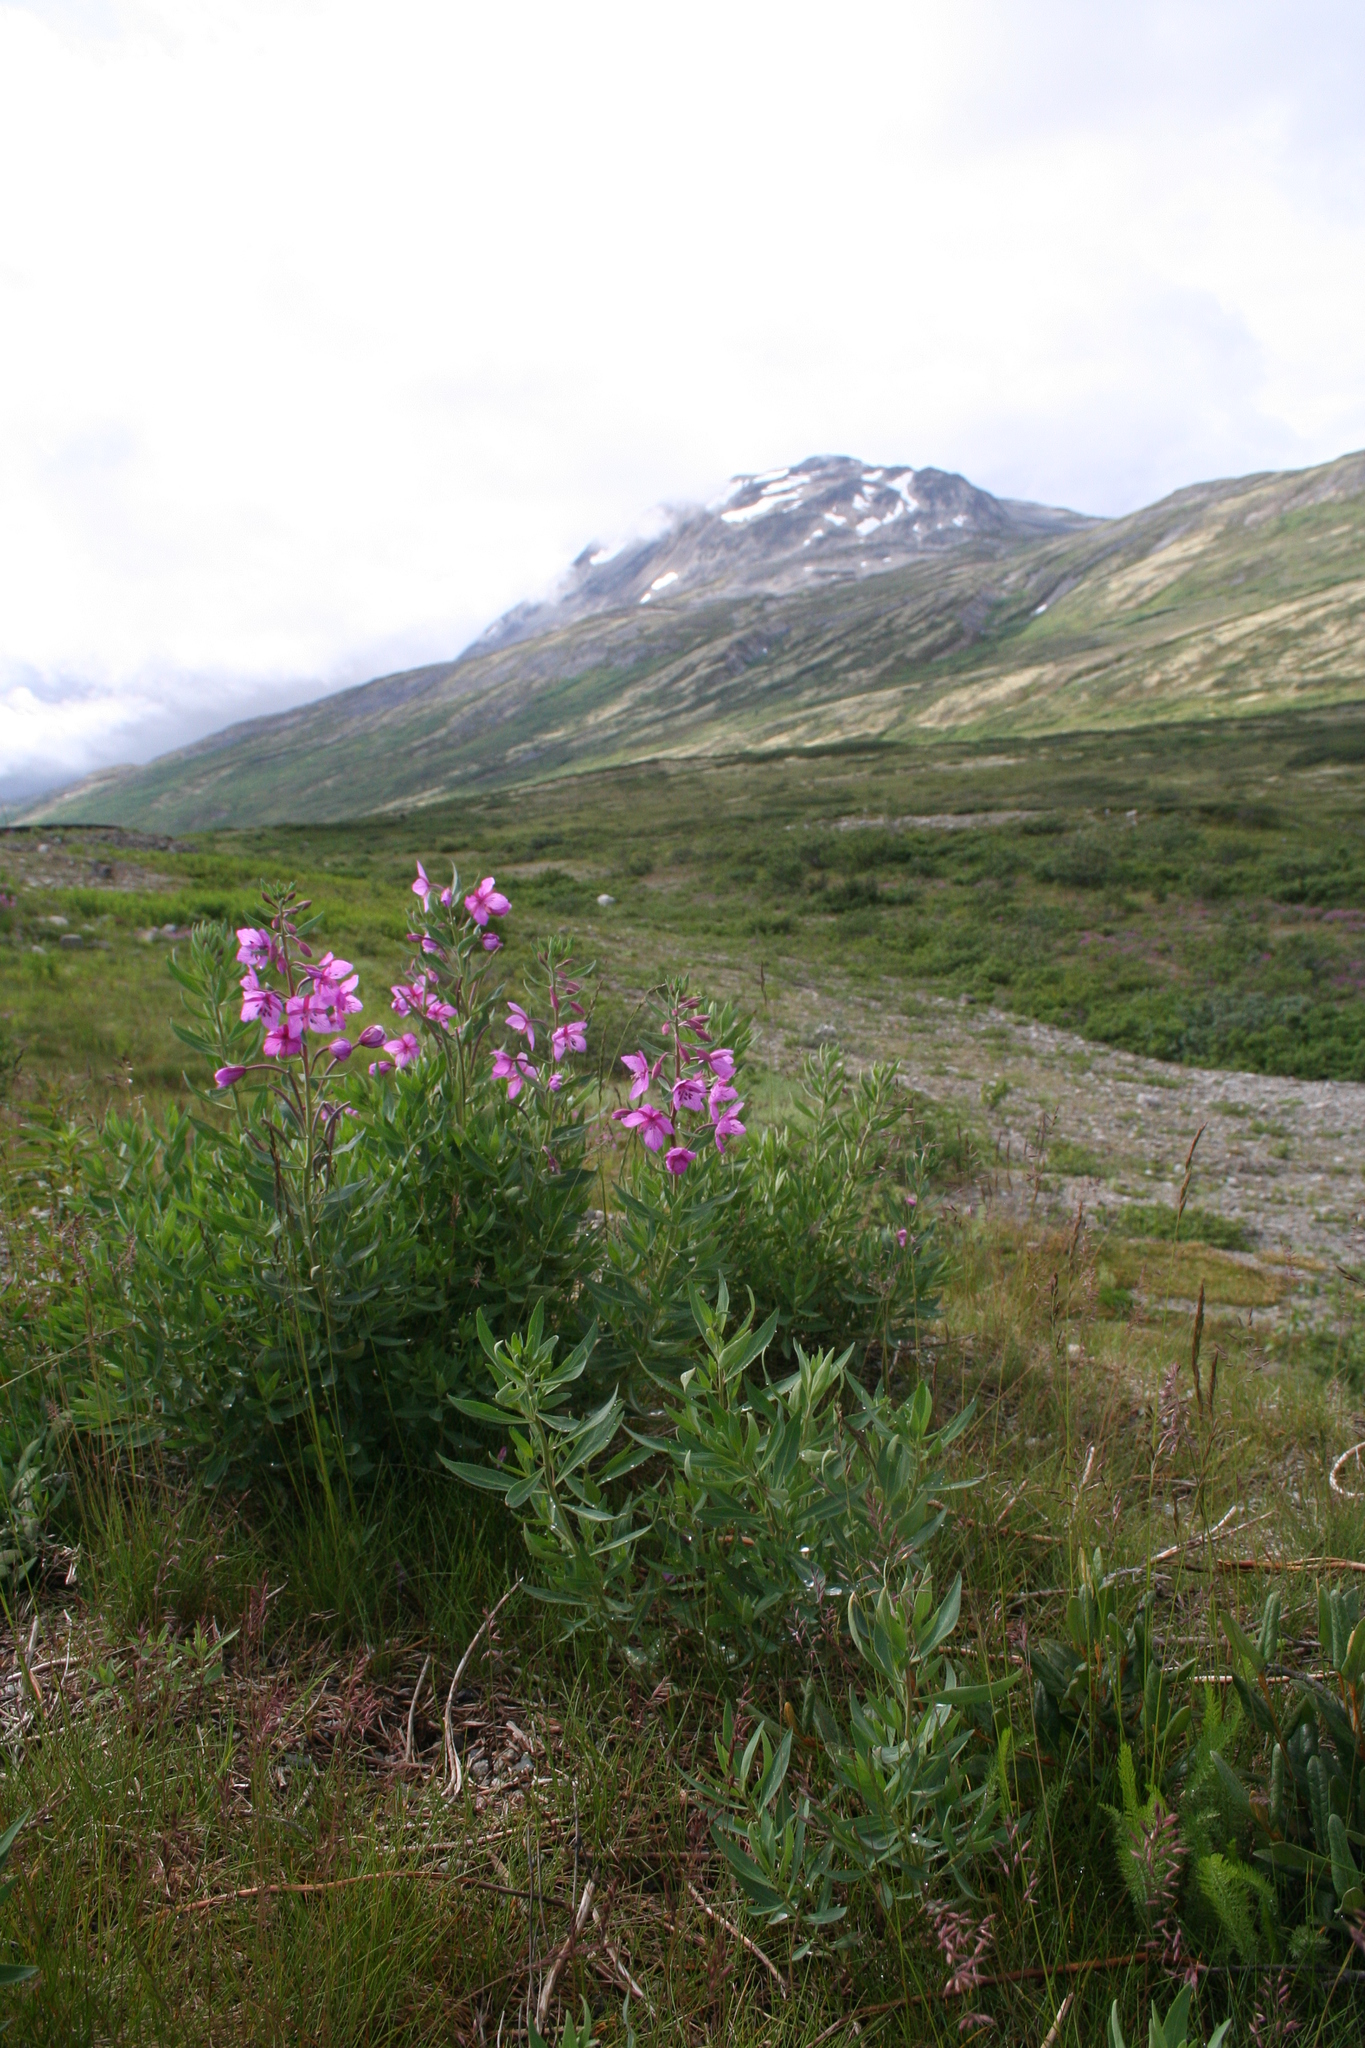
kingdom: Plantae
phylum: Tracheophyta
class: Magnoliopsida
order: Myrtales
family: Onagraceae
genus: Chamaenerion
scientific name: Chamaenerion angustifolium
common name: Fireweed
